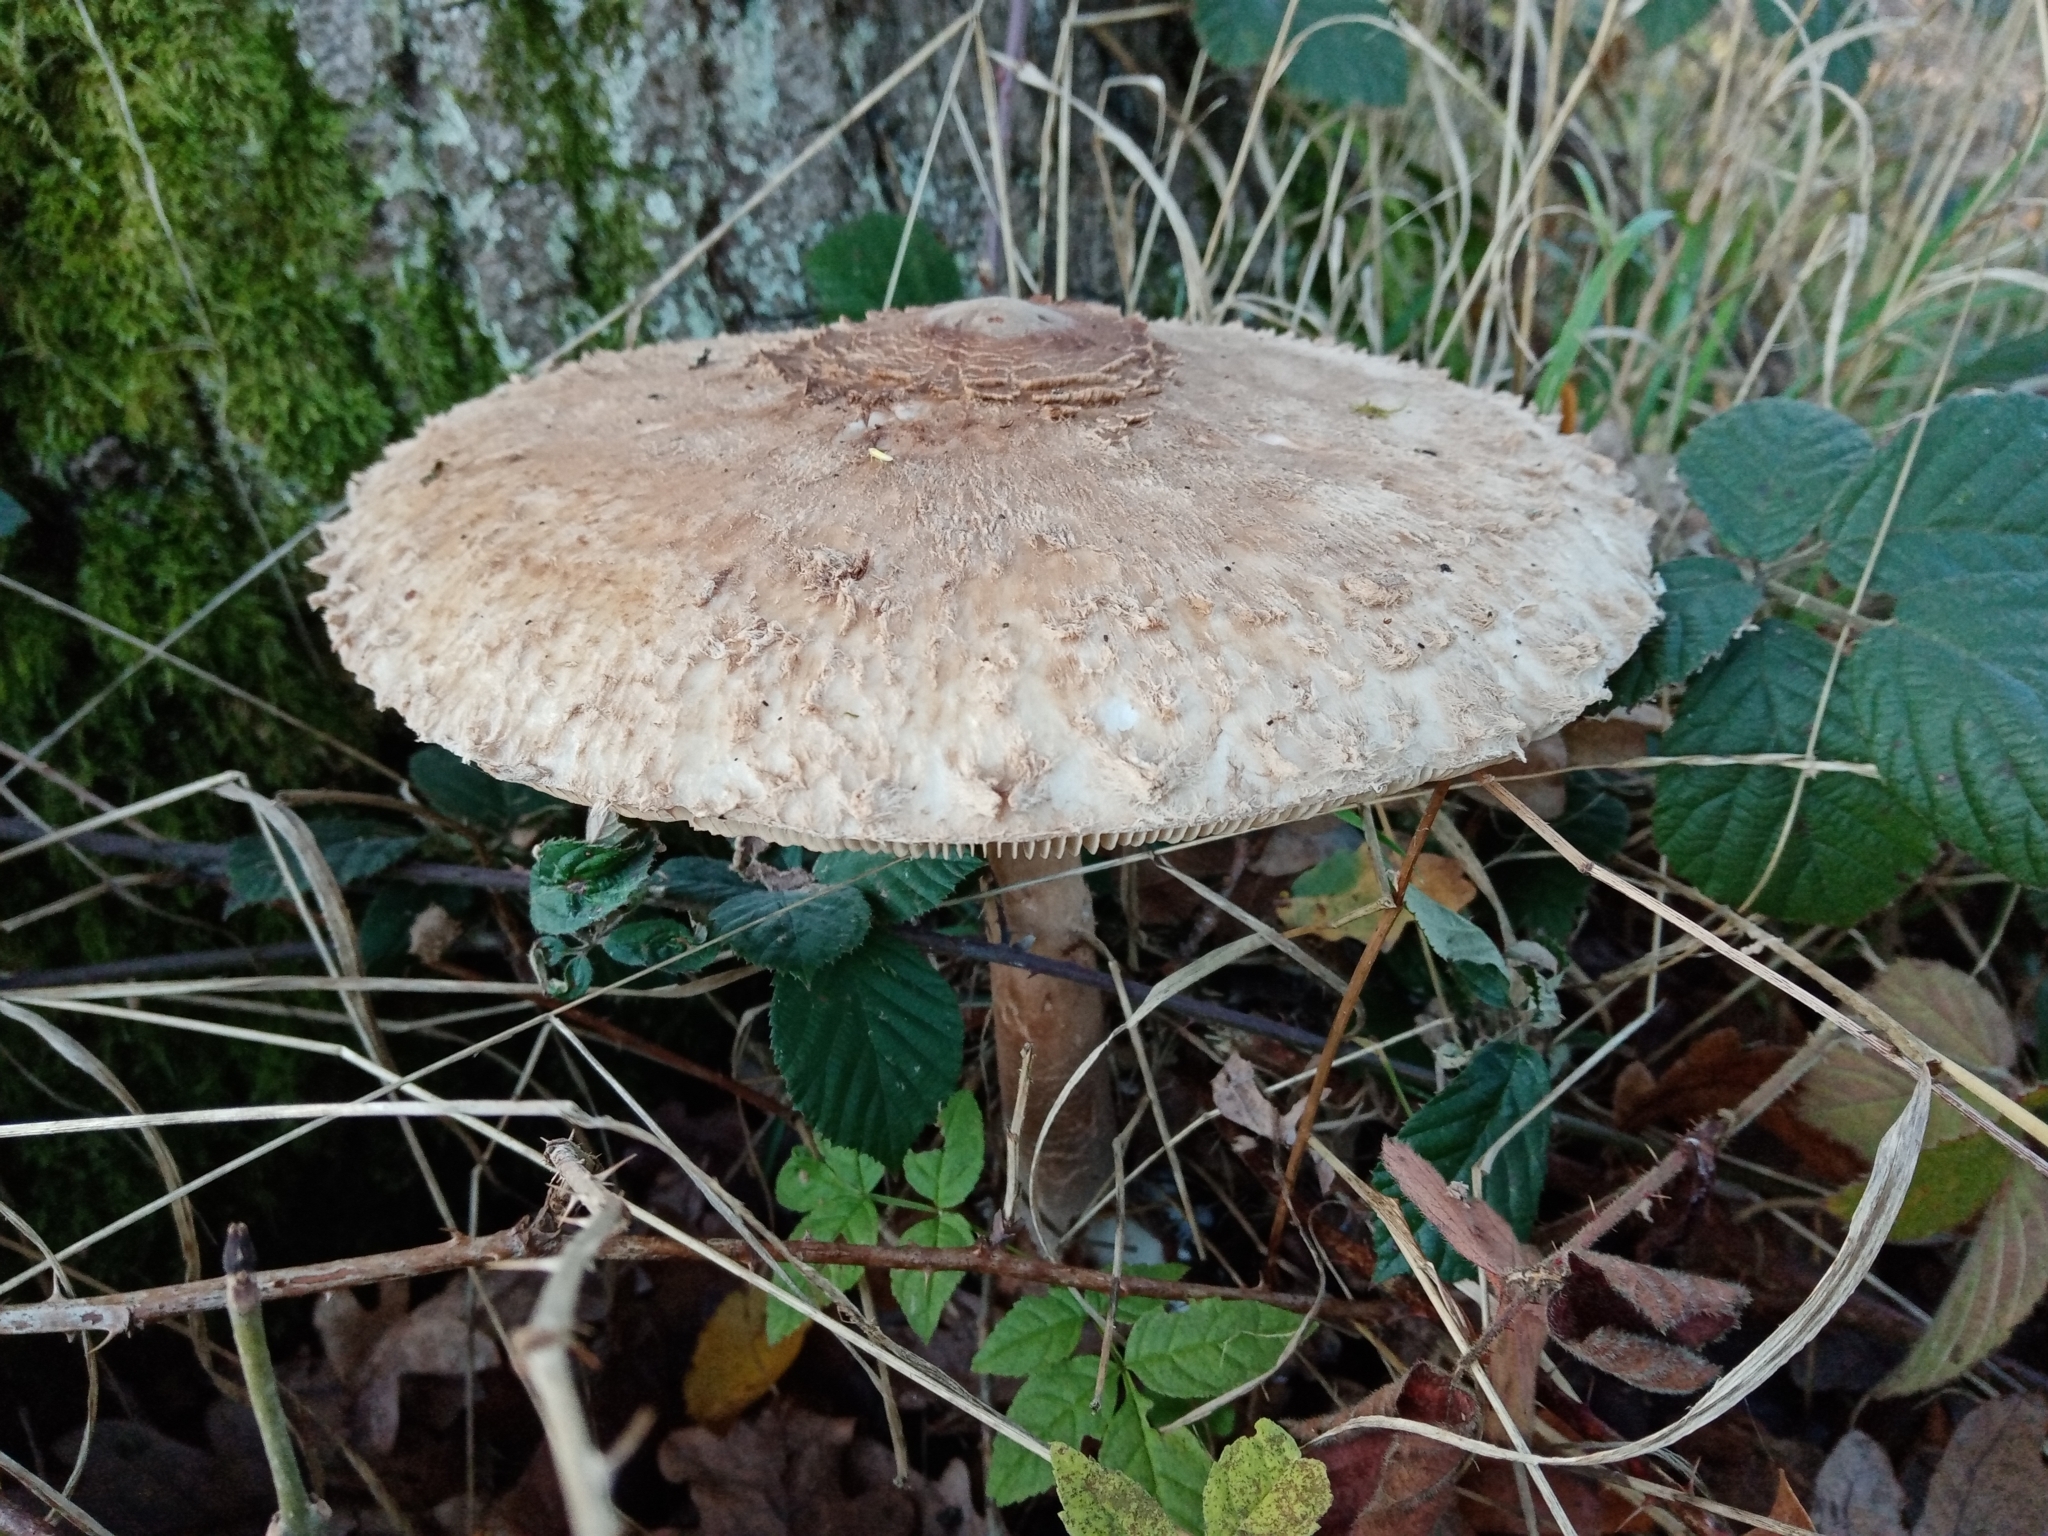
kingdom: Fungi
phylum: Basidiomycota
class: Agaricomycetes
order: Agaricales
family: Agaricaceae
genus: Macrolepiota
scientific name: Macrolepiota procera
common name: Parasol
